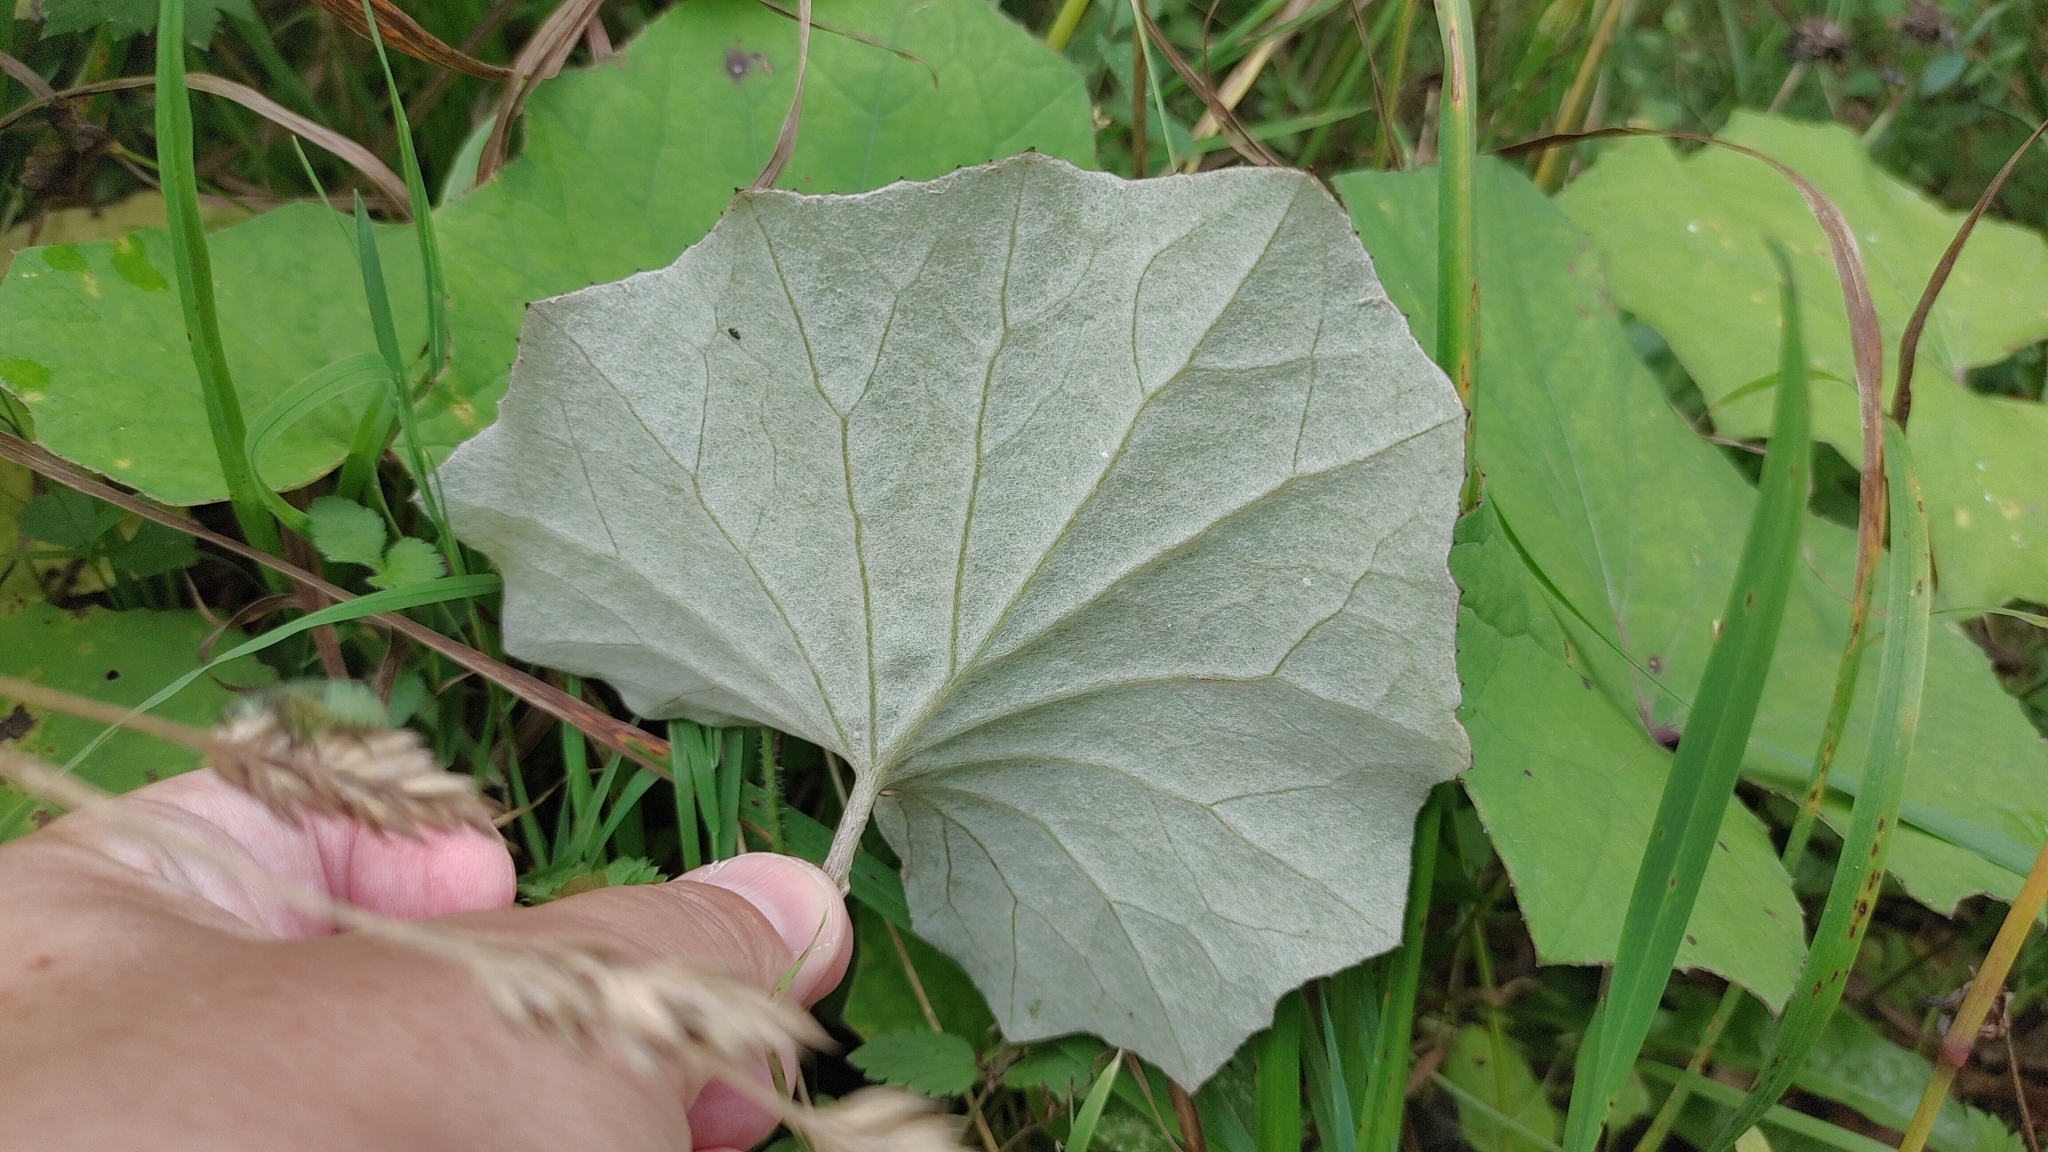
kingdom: Plantae
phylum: Tracheophyta
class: Magnoliopsida
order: Asterales
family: Asteraceae
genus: Tussilago
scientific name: Tussilago farfara
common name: Coltsfoot
